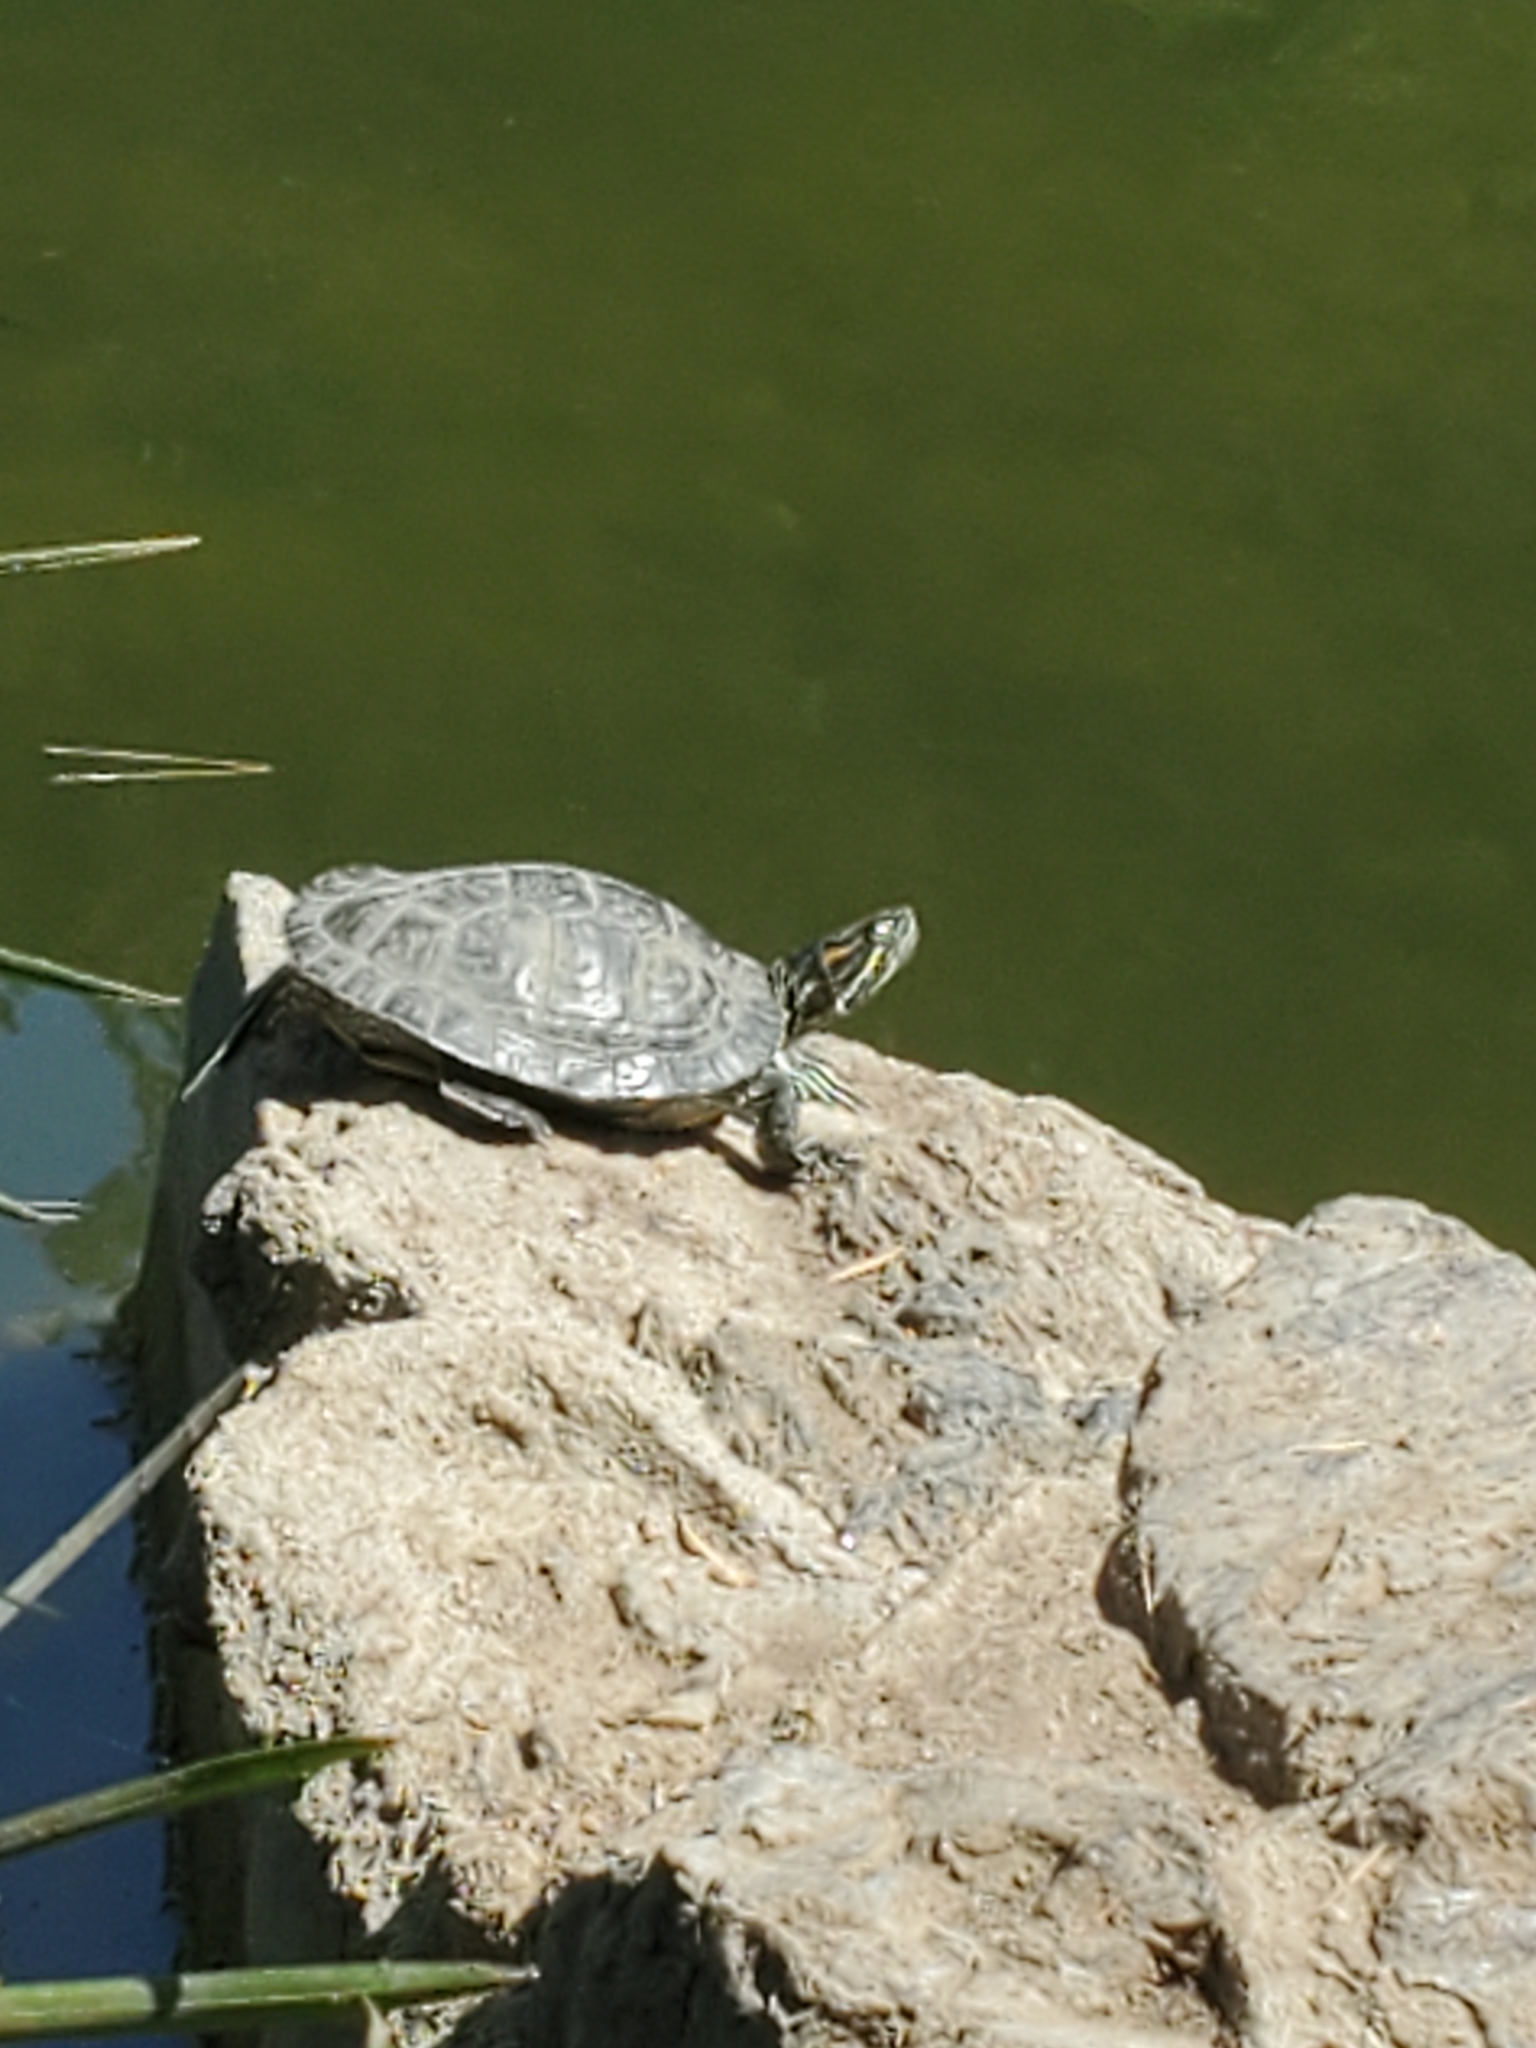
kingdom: Animalia
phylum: Chordata
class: Testudines
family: Emydidae
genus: Trachemys
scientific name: Trachemys scripta
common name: Slider
